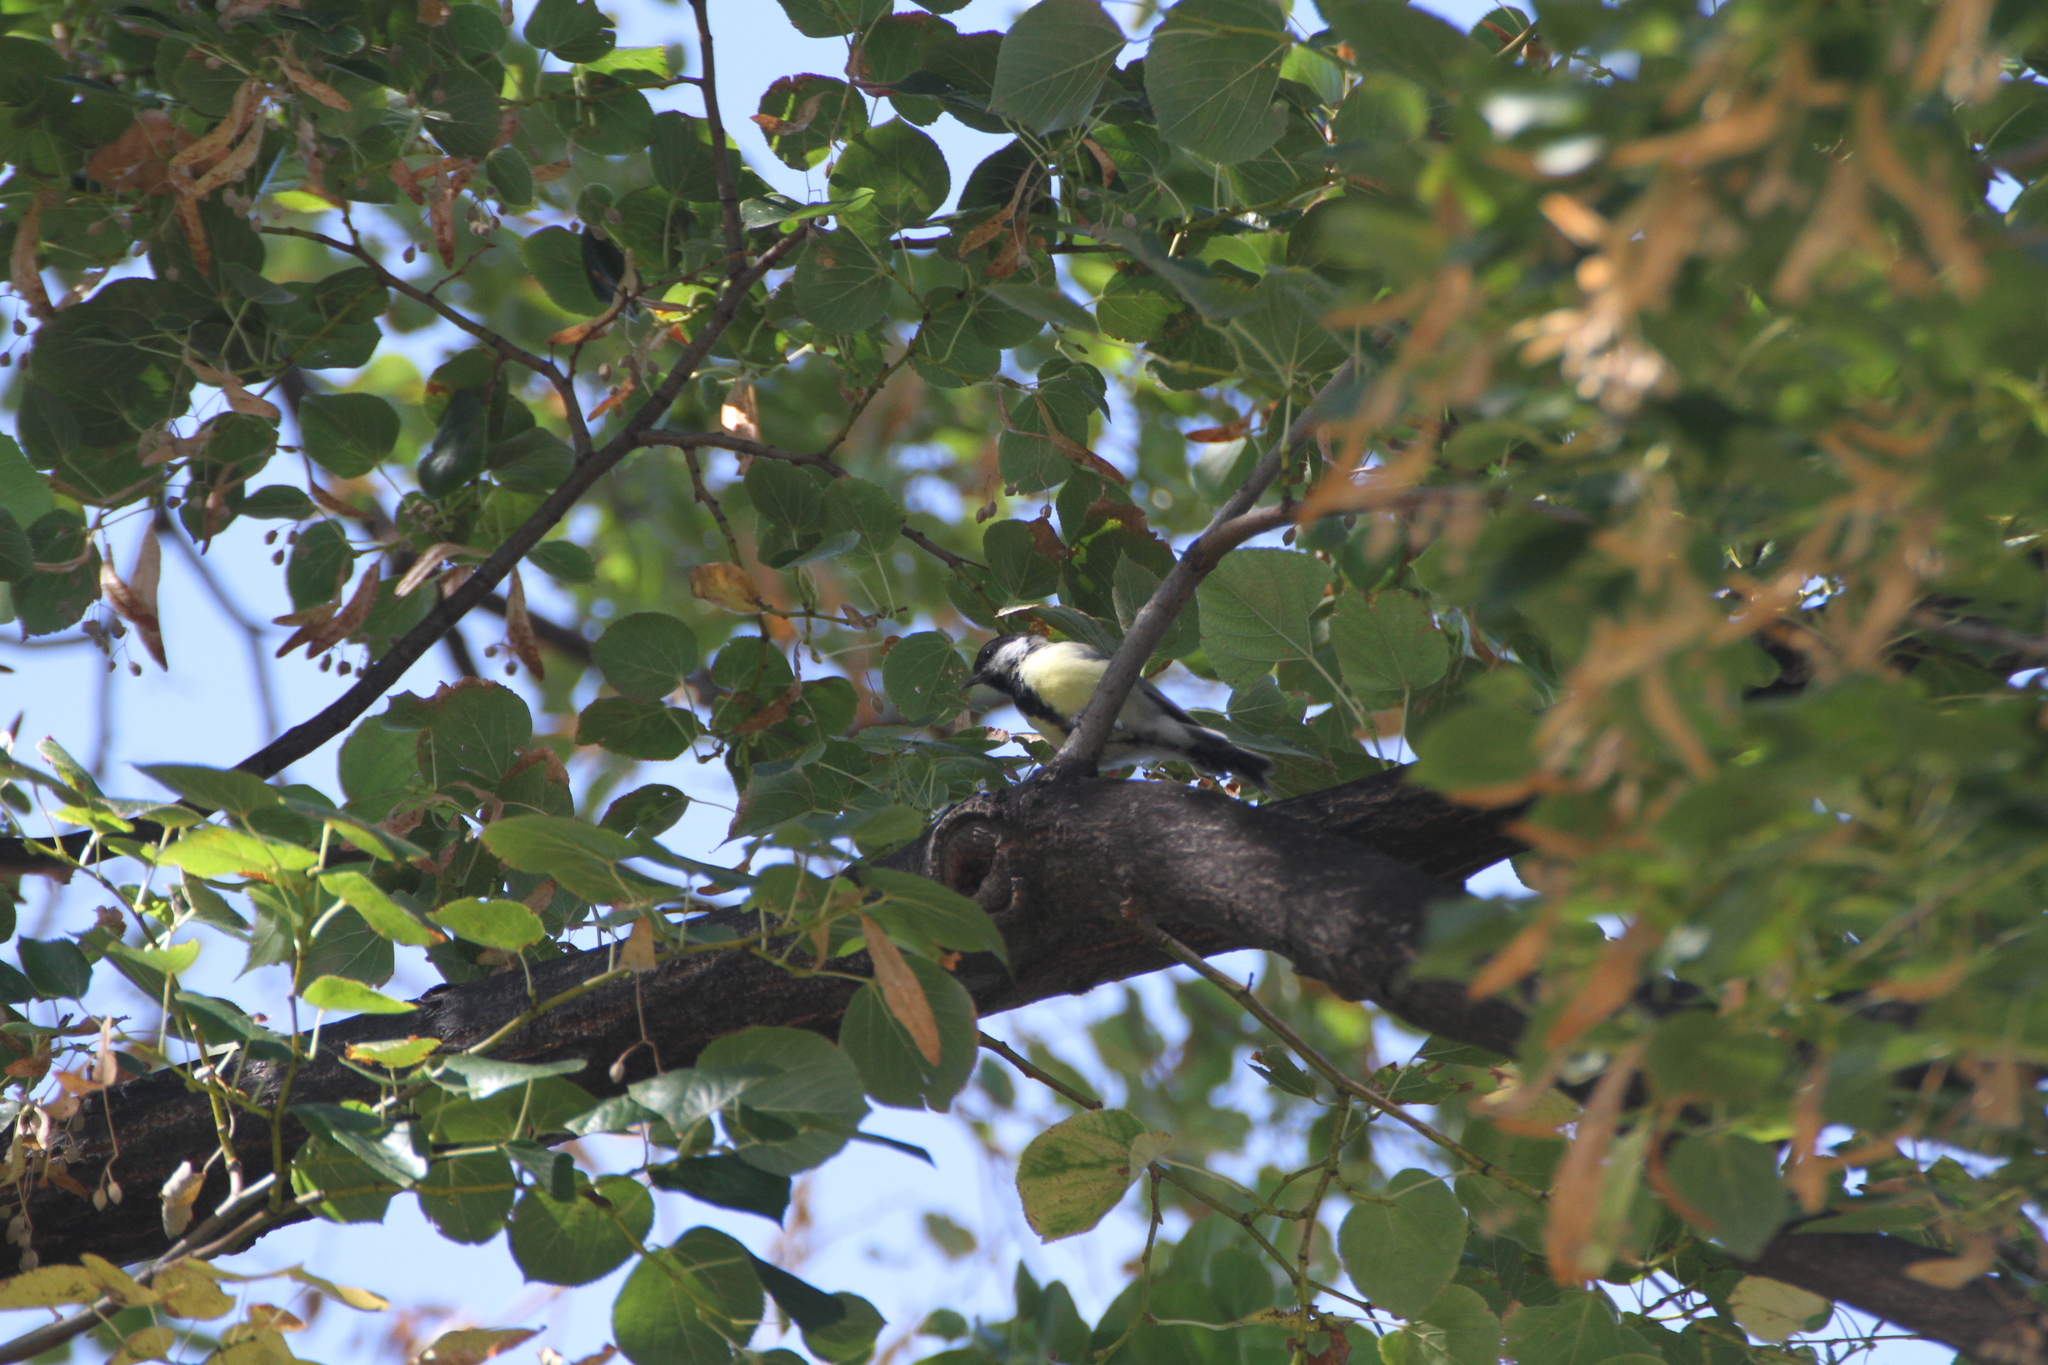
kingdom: Animalia
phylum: Chordata
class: Aves
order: Passeriformes
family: Paridae
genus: Parus
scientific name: Parus major
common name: Great tit
